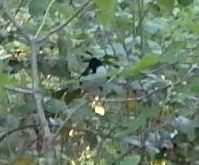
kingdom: Animalia
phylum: Chordata
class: Aves
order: Passeriformes
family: Parulidae
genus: Setophaga
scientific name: Setophaga caerulescens
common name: Black-throated blue warbler
